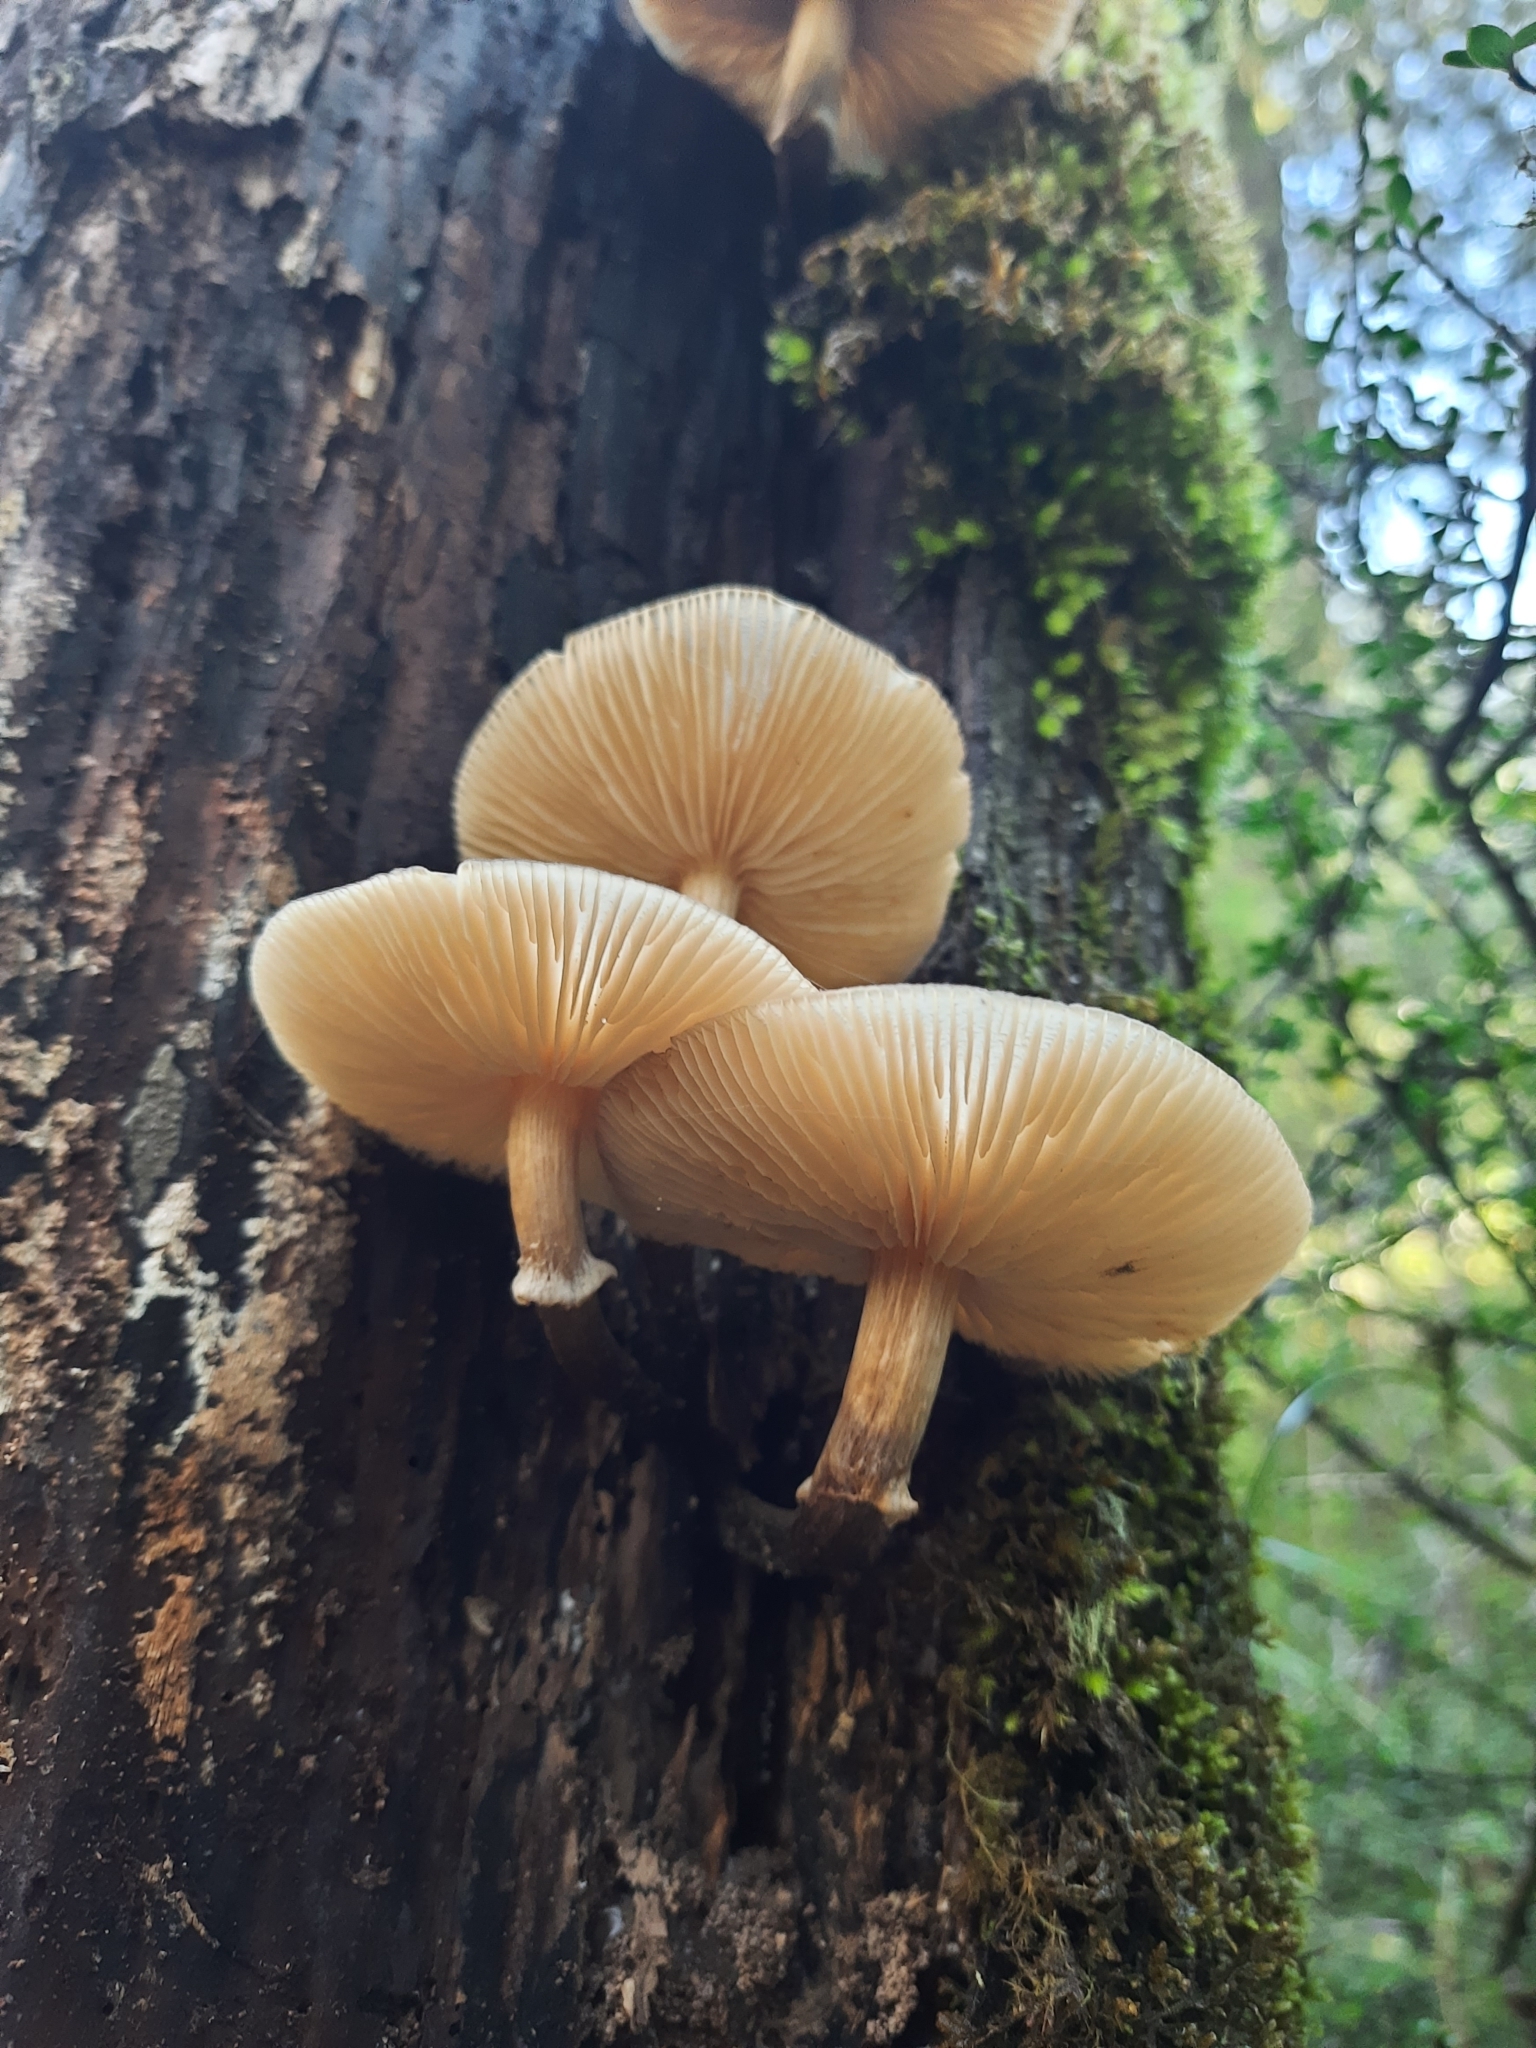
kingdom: Fungi
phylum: Basidiomycota
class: Agaricomycetes
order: Agaricales
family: Physalacriaceae
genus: Armillaria
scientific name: Armillaria novae-zelandiae
